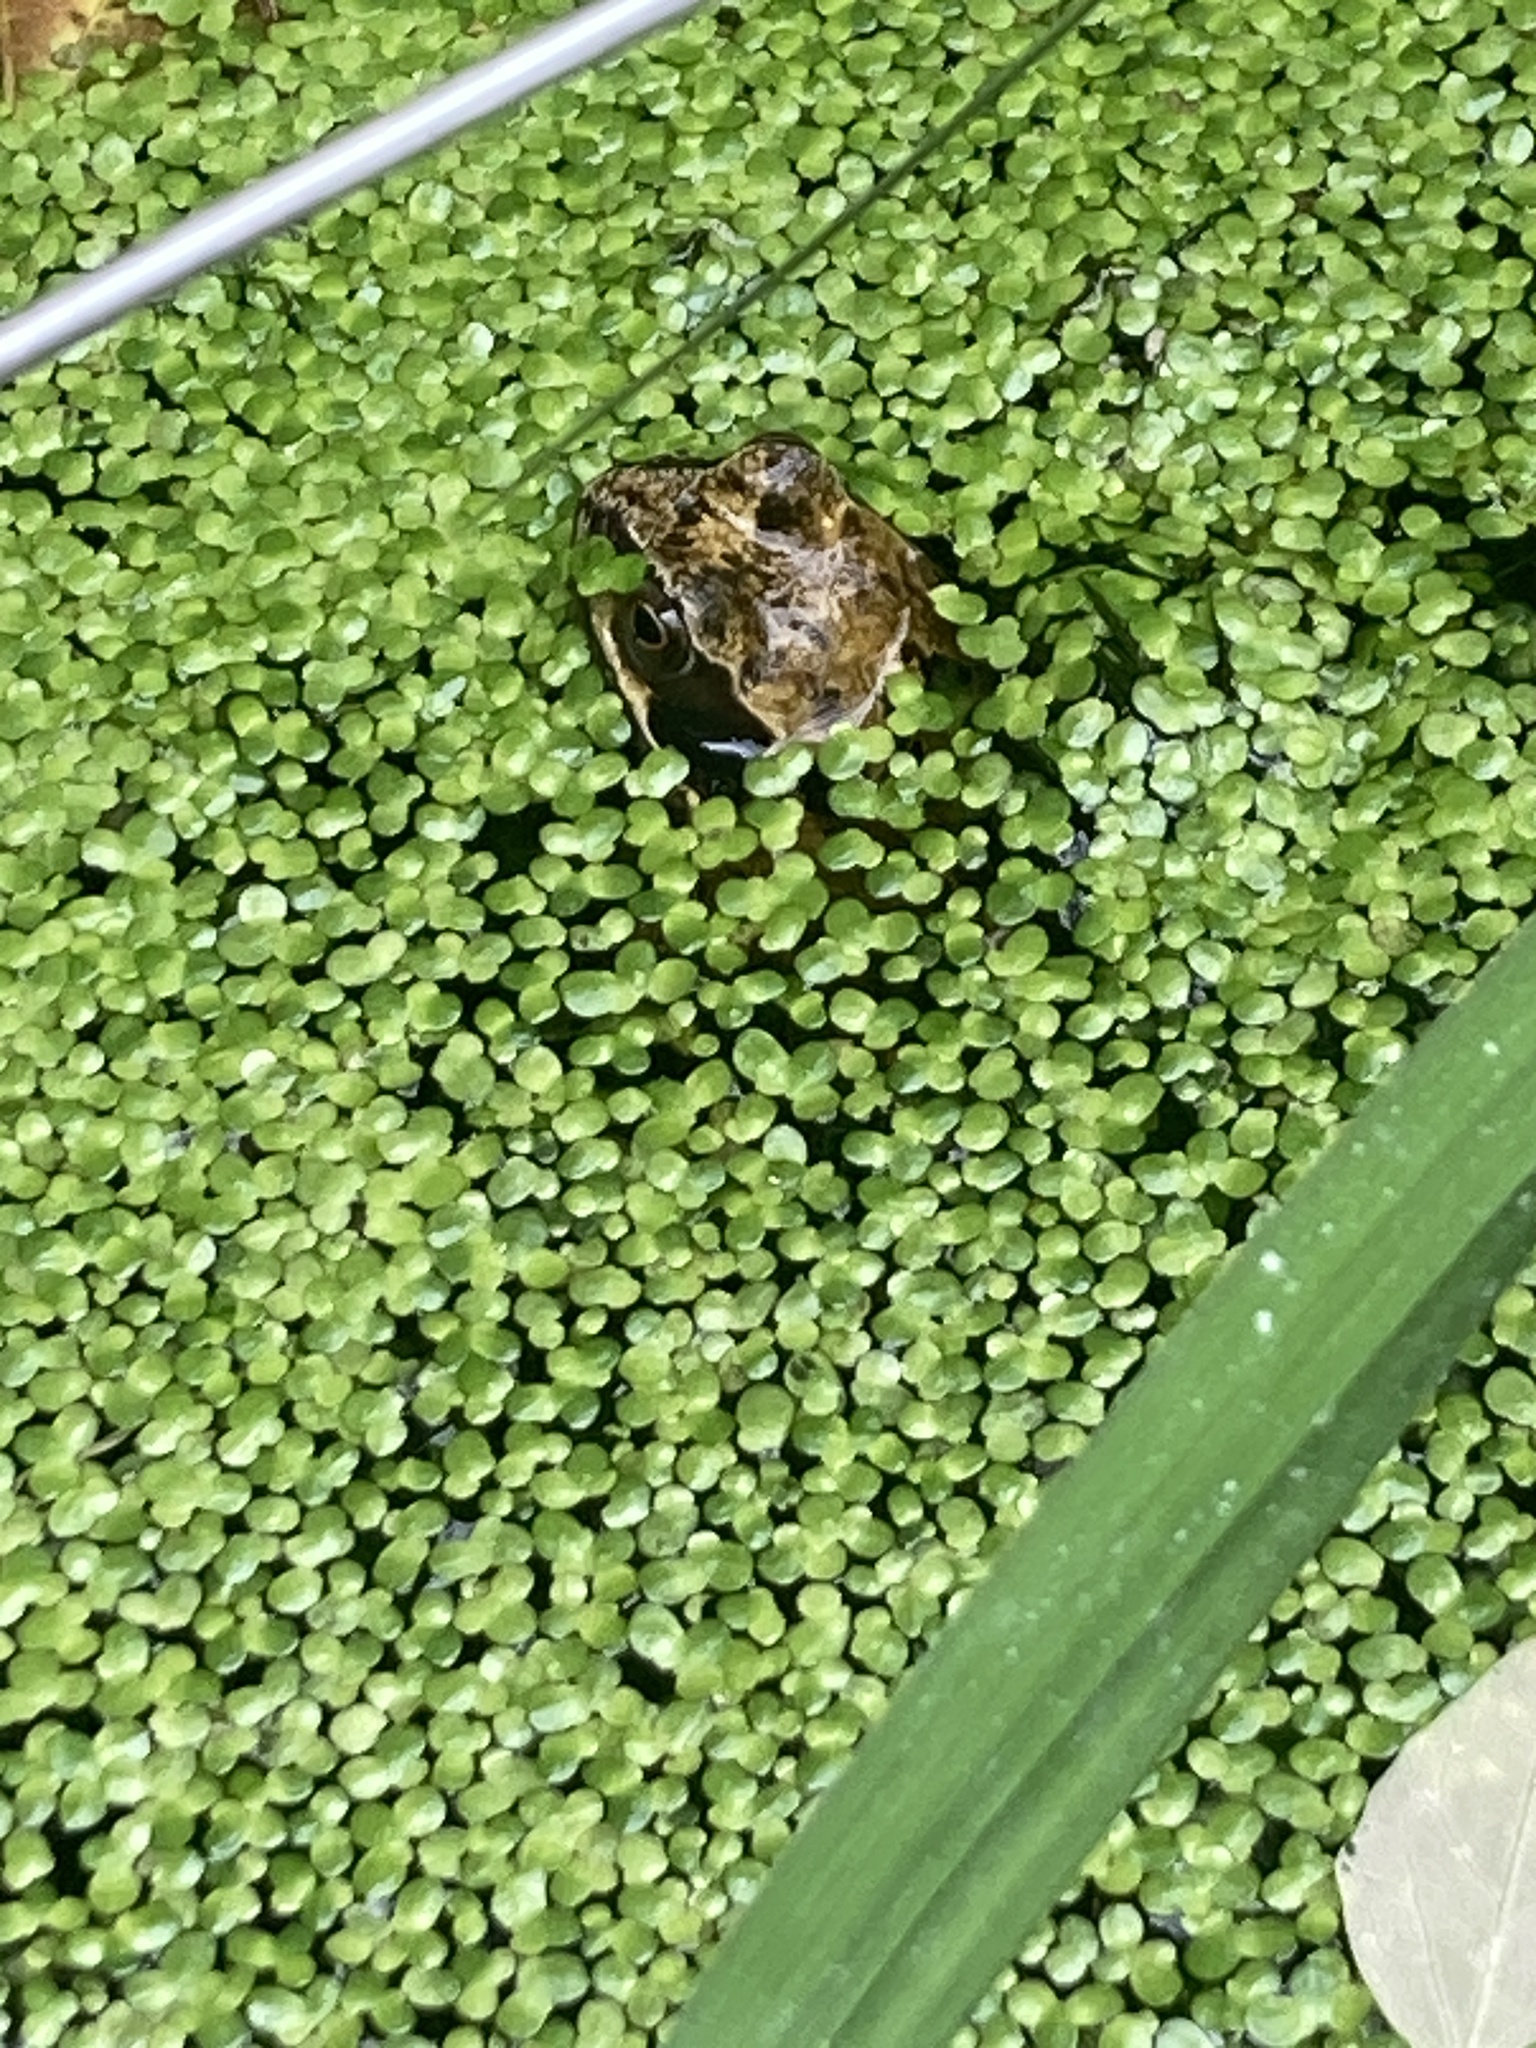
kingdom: Animalia
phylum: Chordata
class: Amphibia
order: Anura
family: Ranidae
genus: Rana
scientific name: Rana temporaria
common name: Common frog
